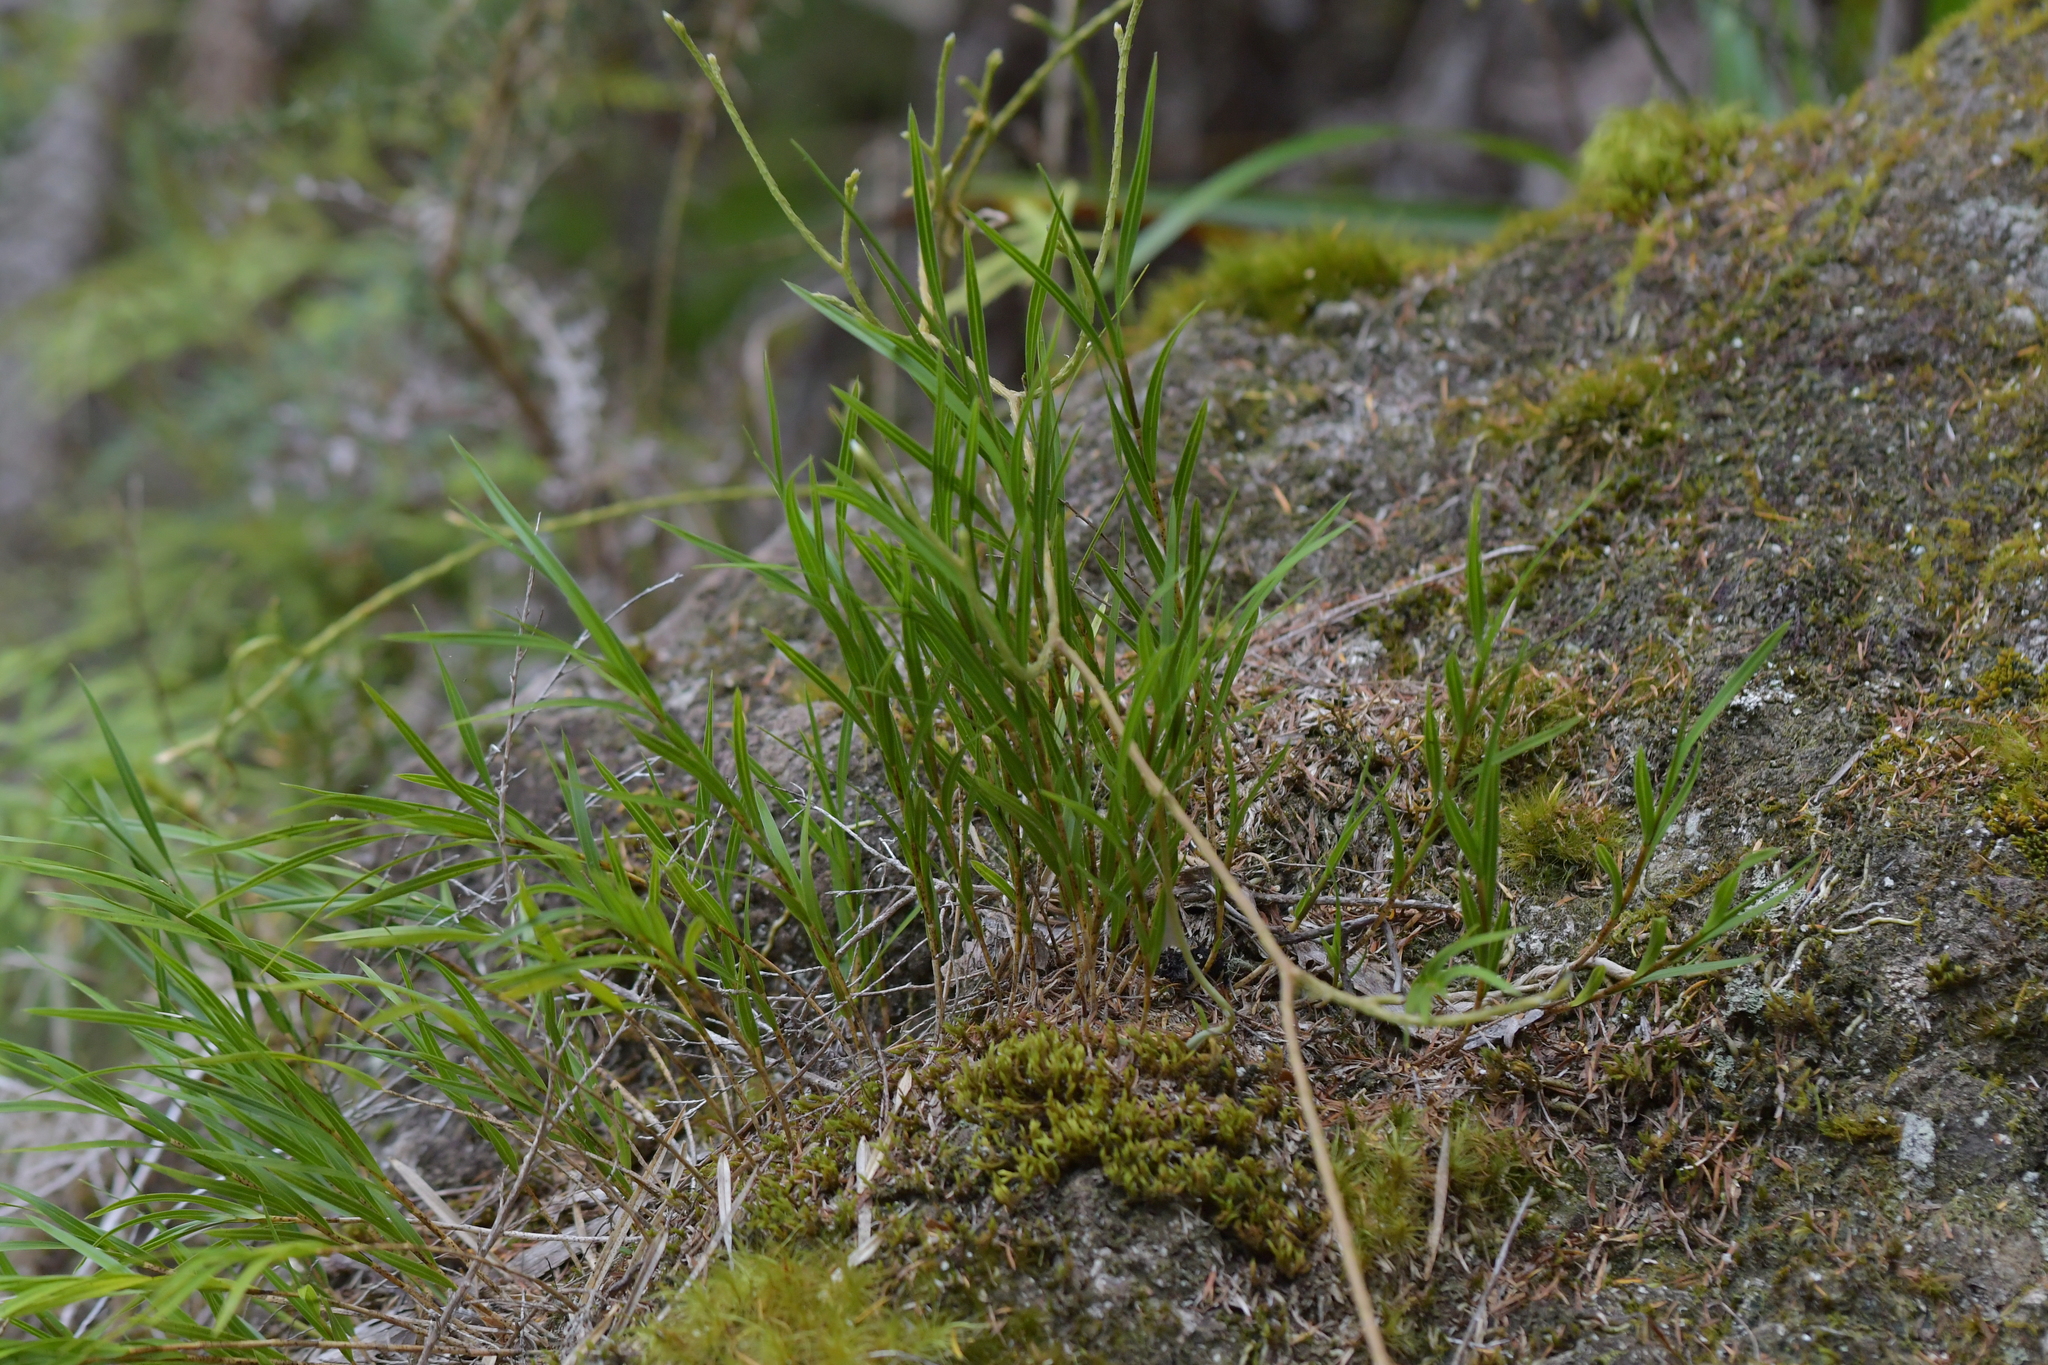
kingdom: Plantae
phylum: Tracheophyta
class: Liliopsida
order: Asparagales
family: Orchidaceae
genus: Earina
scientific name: Earina mucronata
